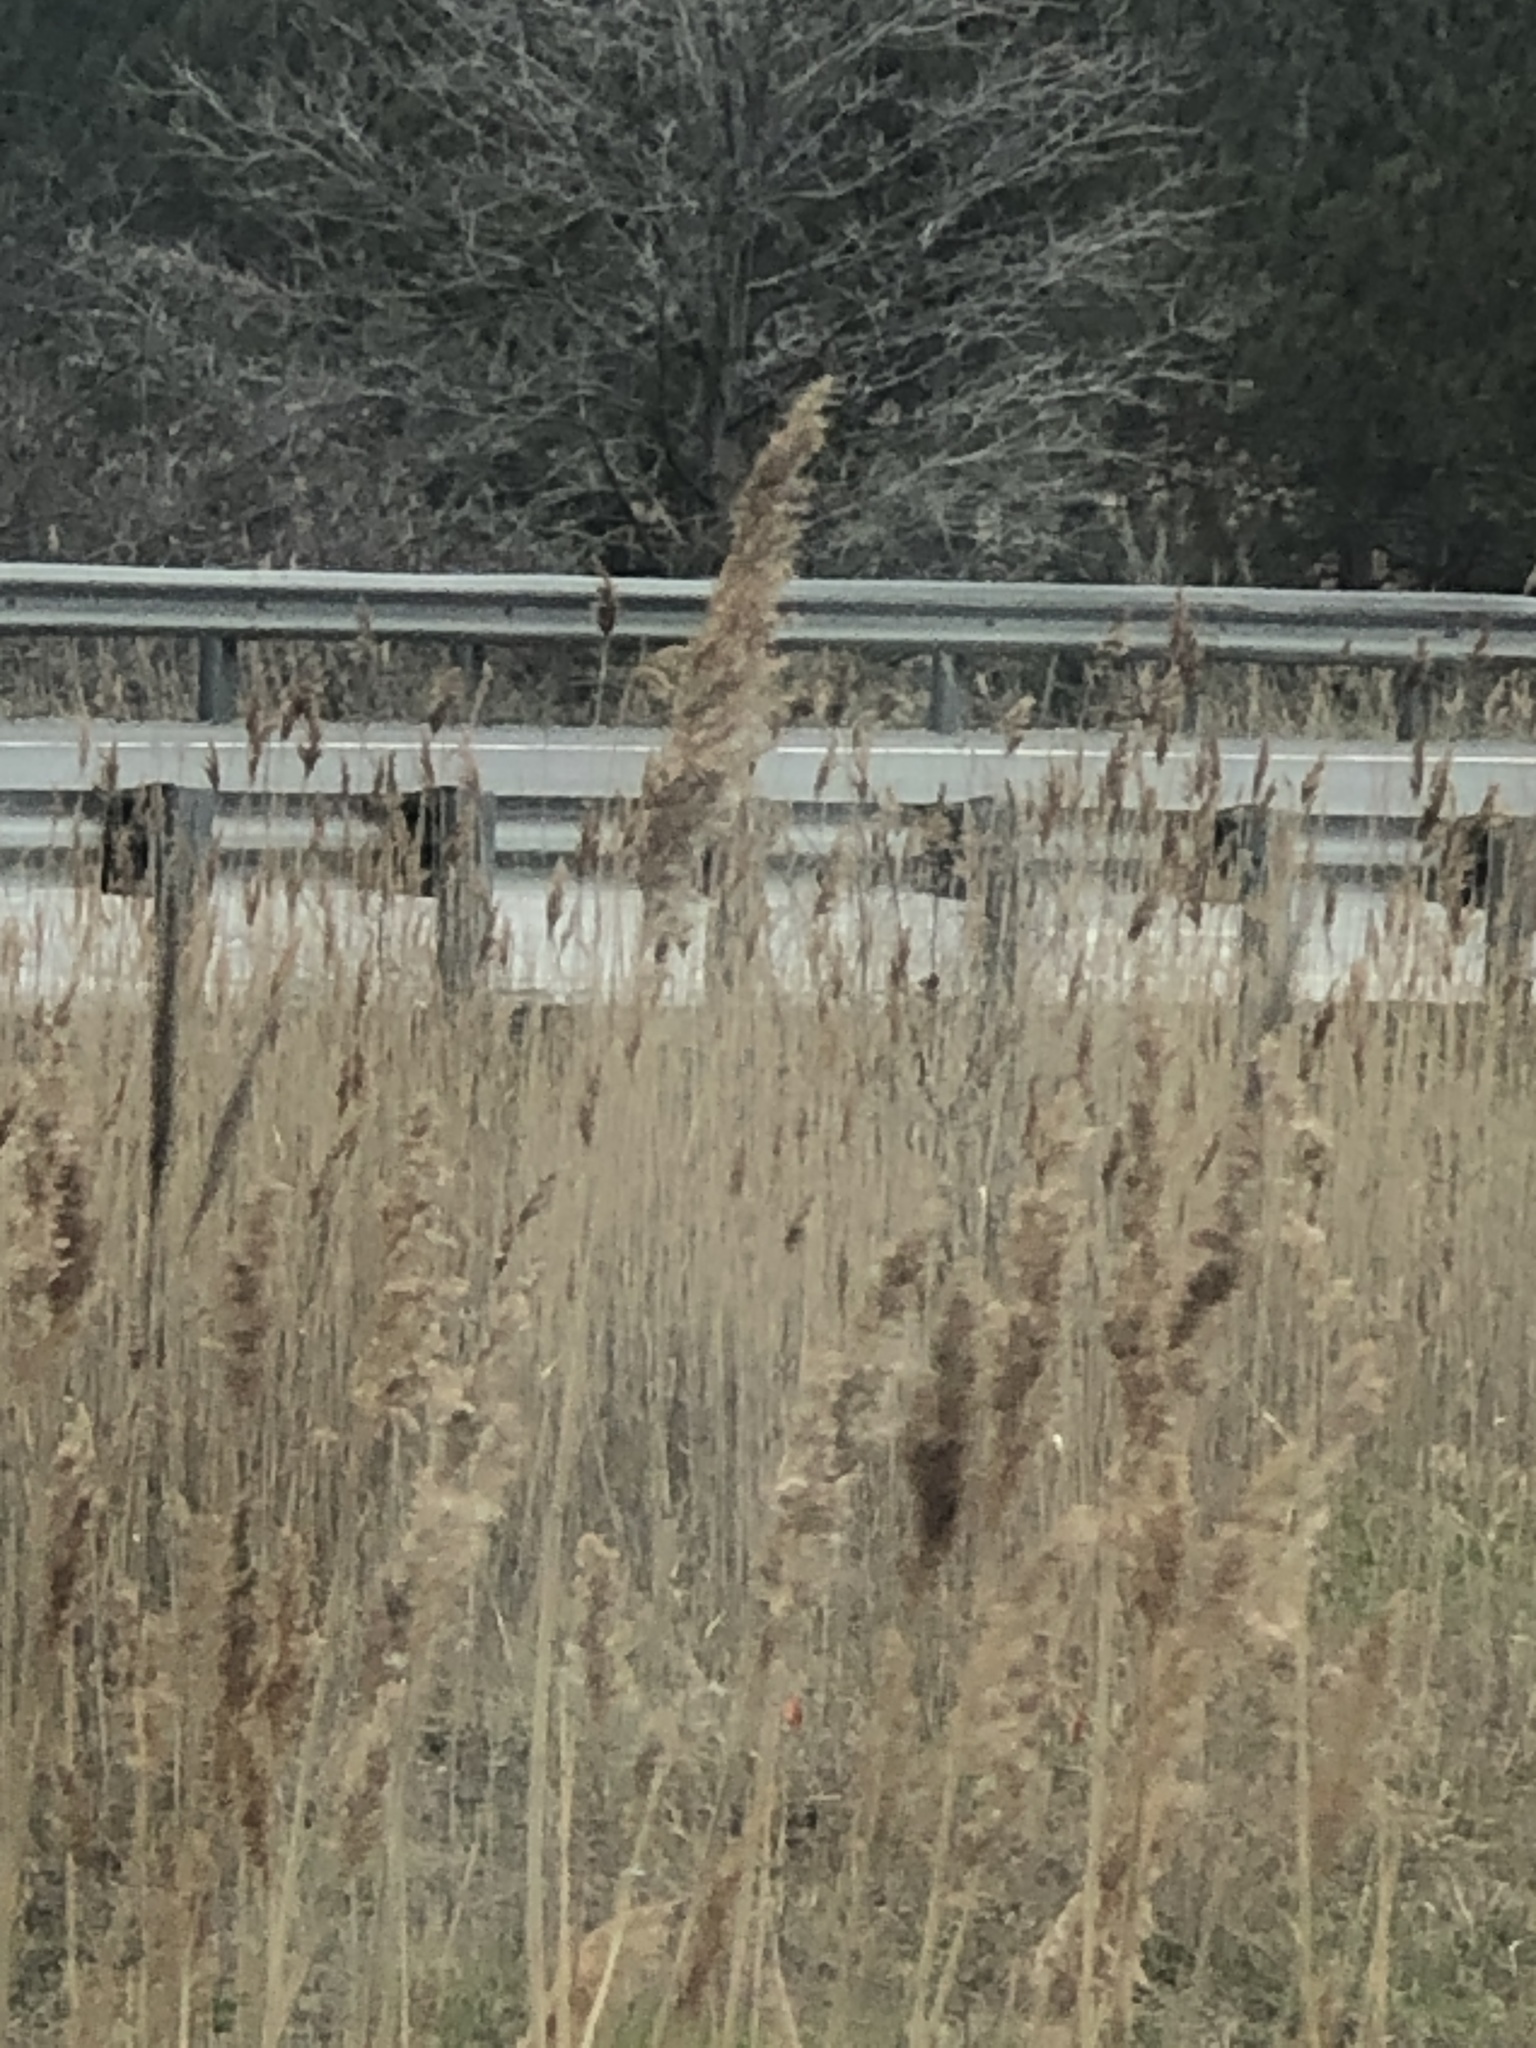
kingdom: Plantae
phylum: Tracheophyta
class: Liliopsida
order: Poales
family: Poaceae
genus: Phragmites
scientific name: Phragmites australis
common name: Common reed
